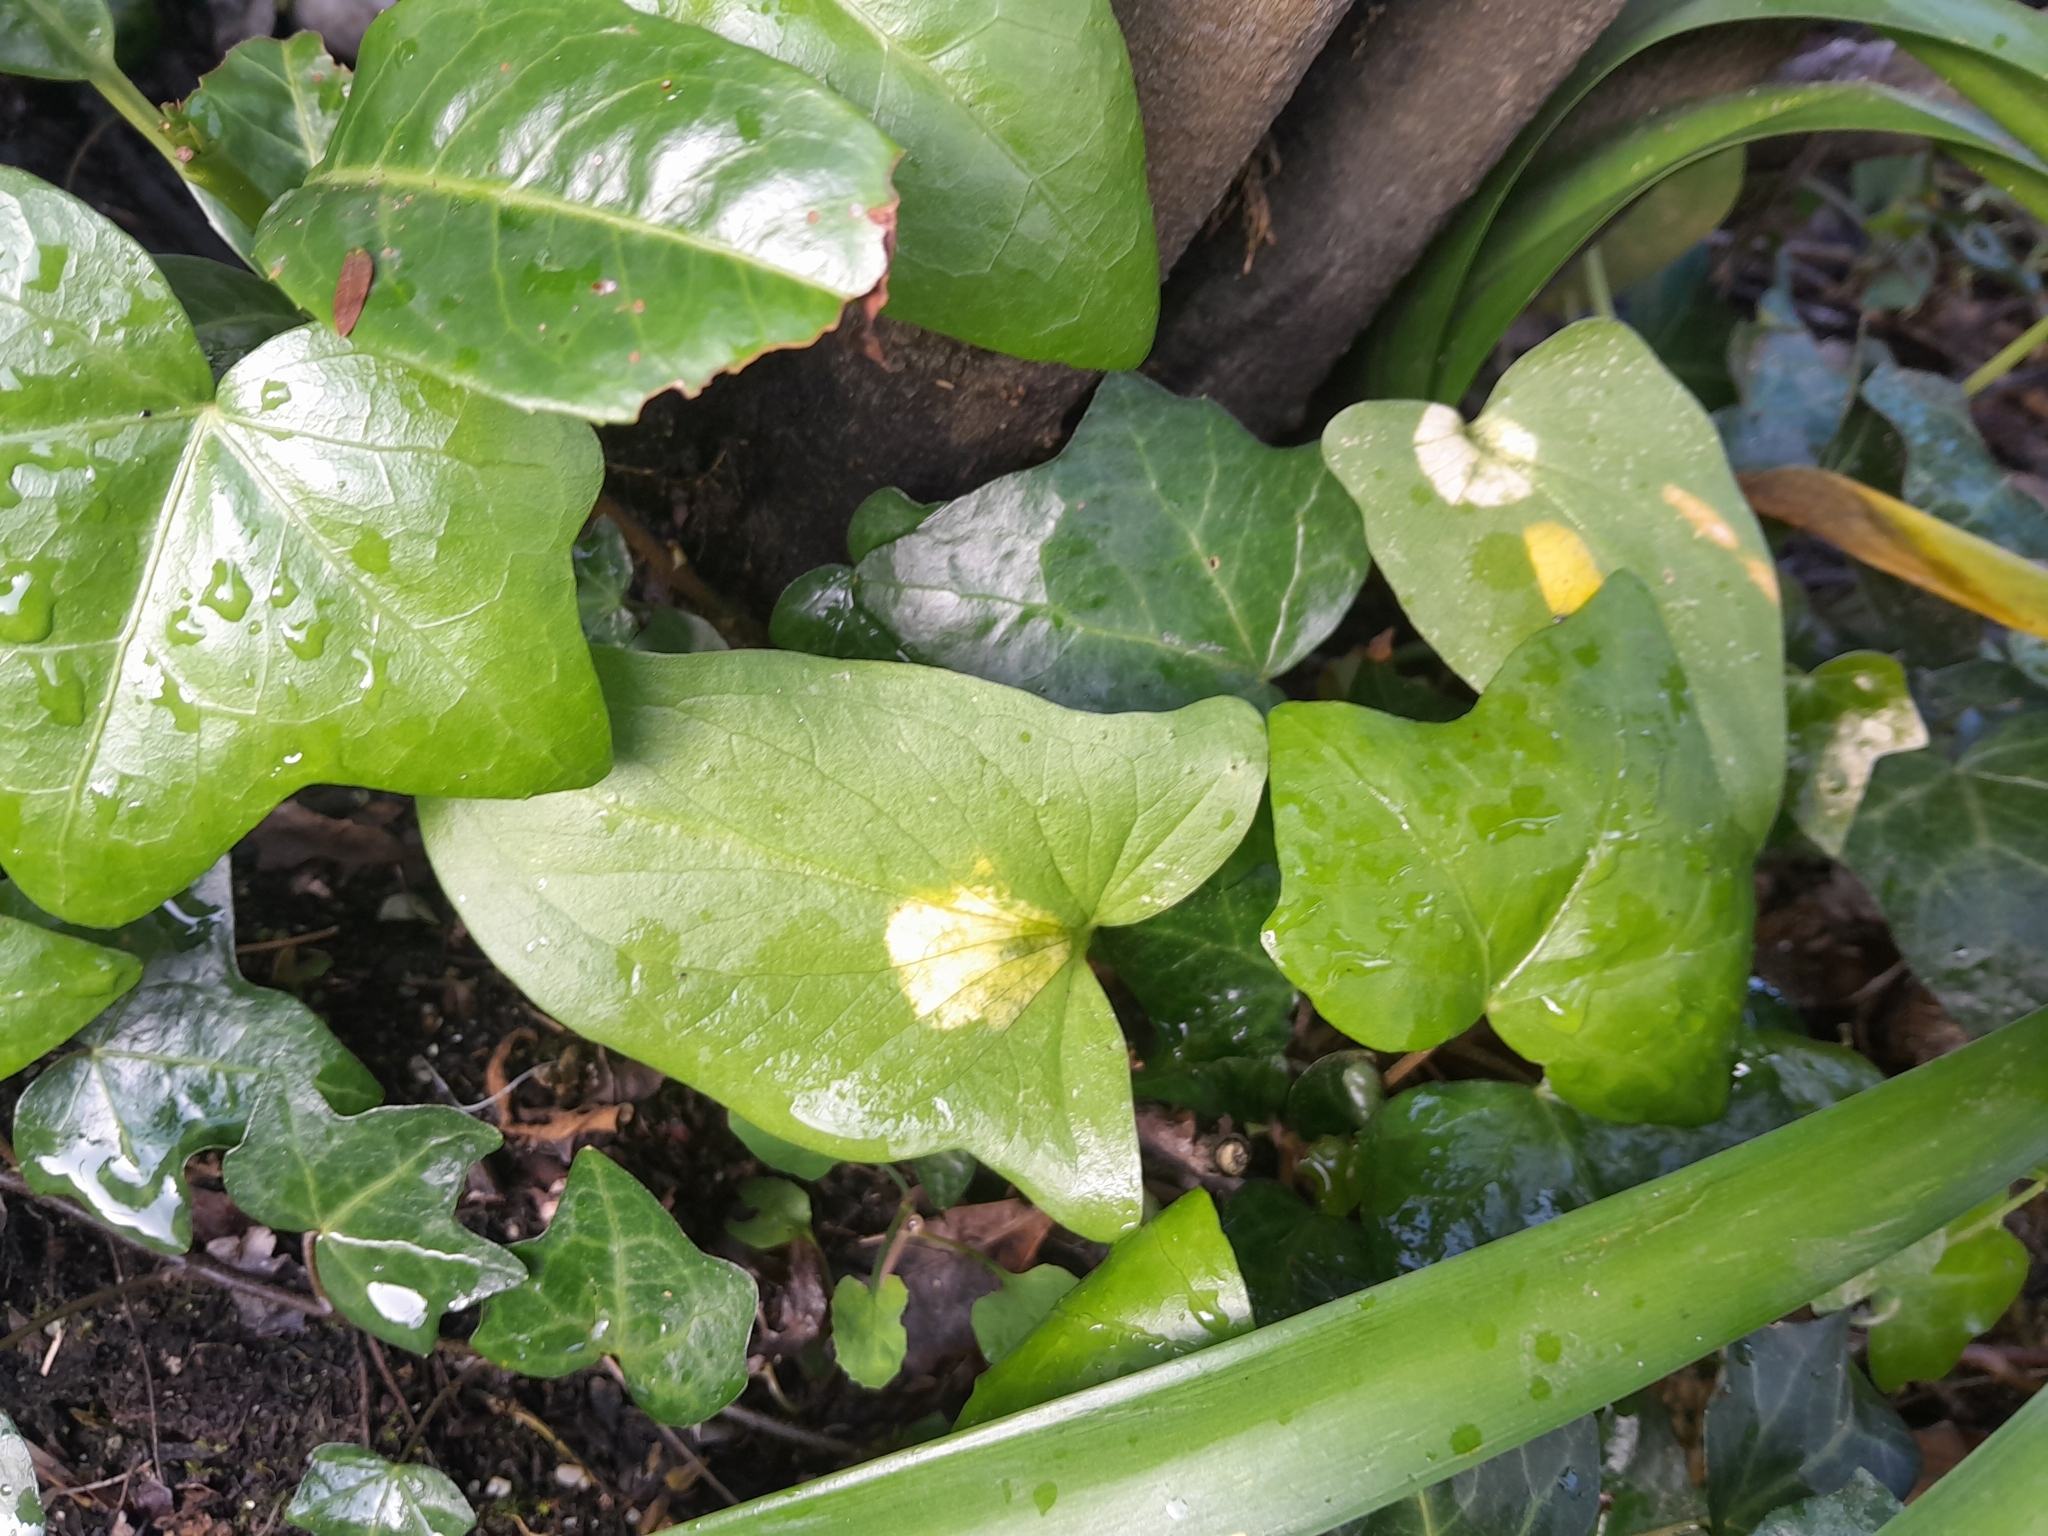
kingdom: Chromista
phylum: Ochrophyta
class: Xanthophyceae
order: Phyllosiphonales
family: Phyllosiphonaceae
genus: Phyllosiphon
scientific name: Phyllosiphon arisari
